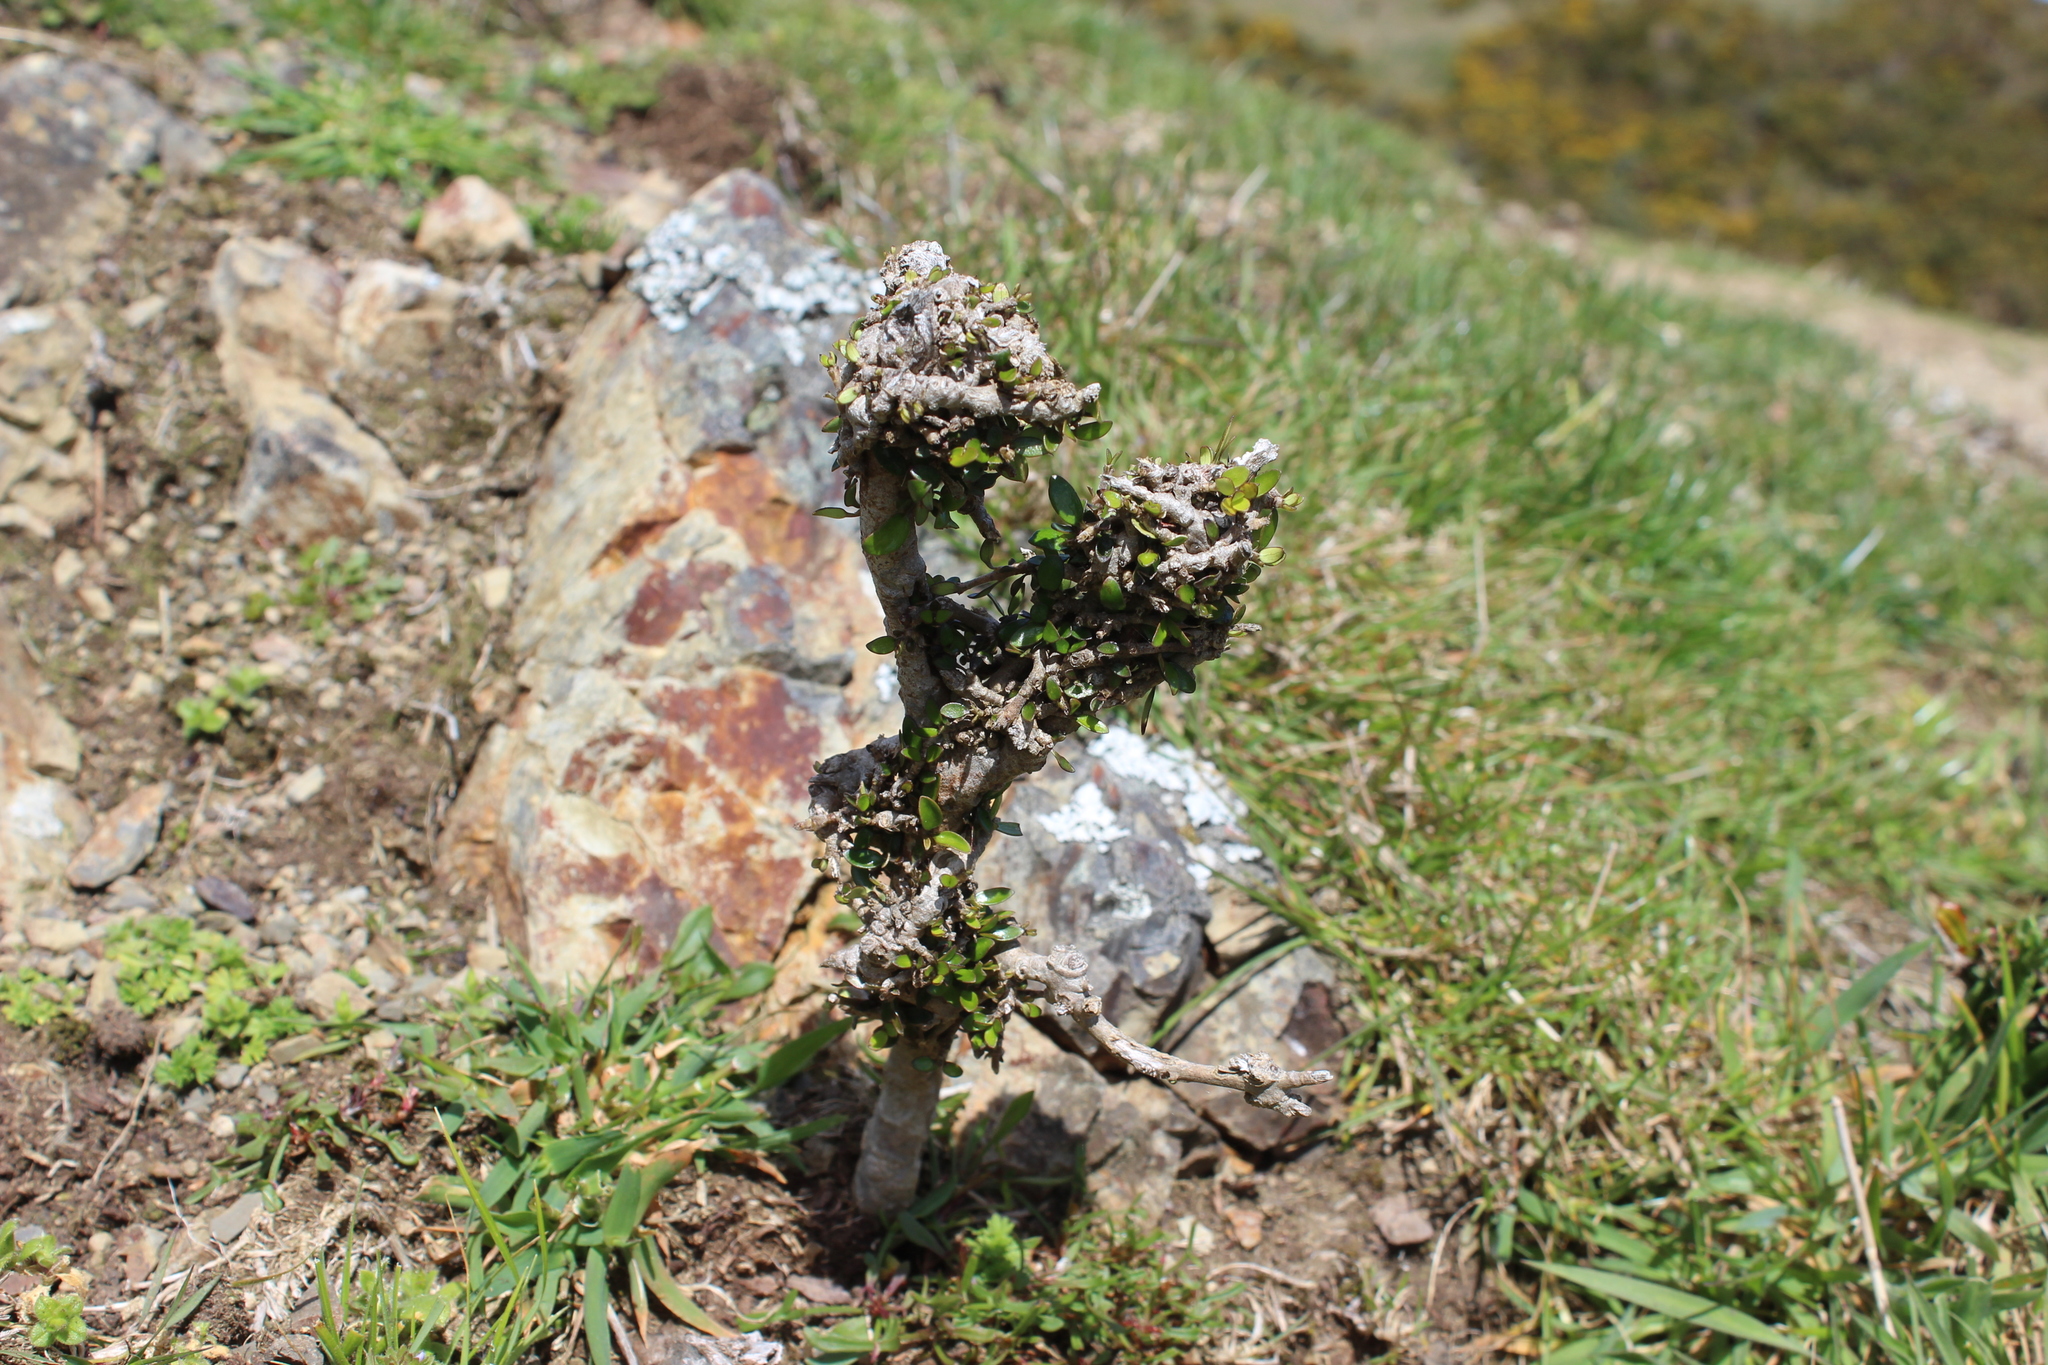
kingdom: Plantae
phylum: Tracheophyta
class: Magnoliopsida
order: Gentianales
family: Rubiaceae
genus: Coprosma
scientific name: Coprosma propinqua
